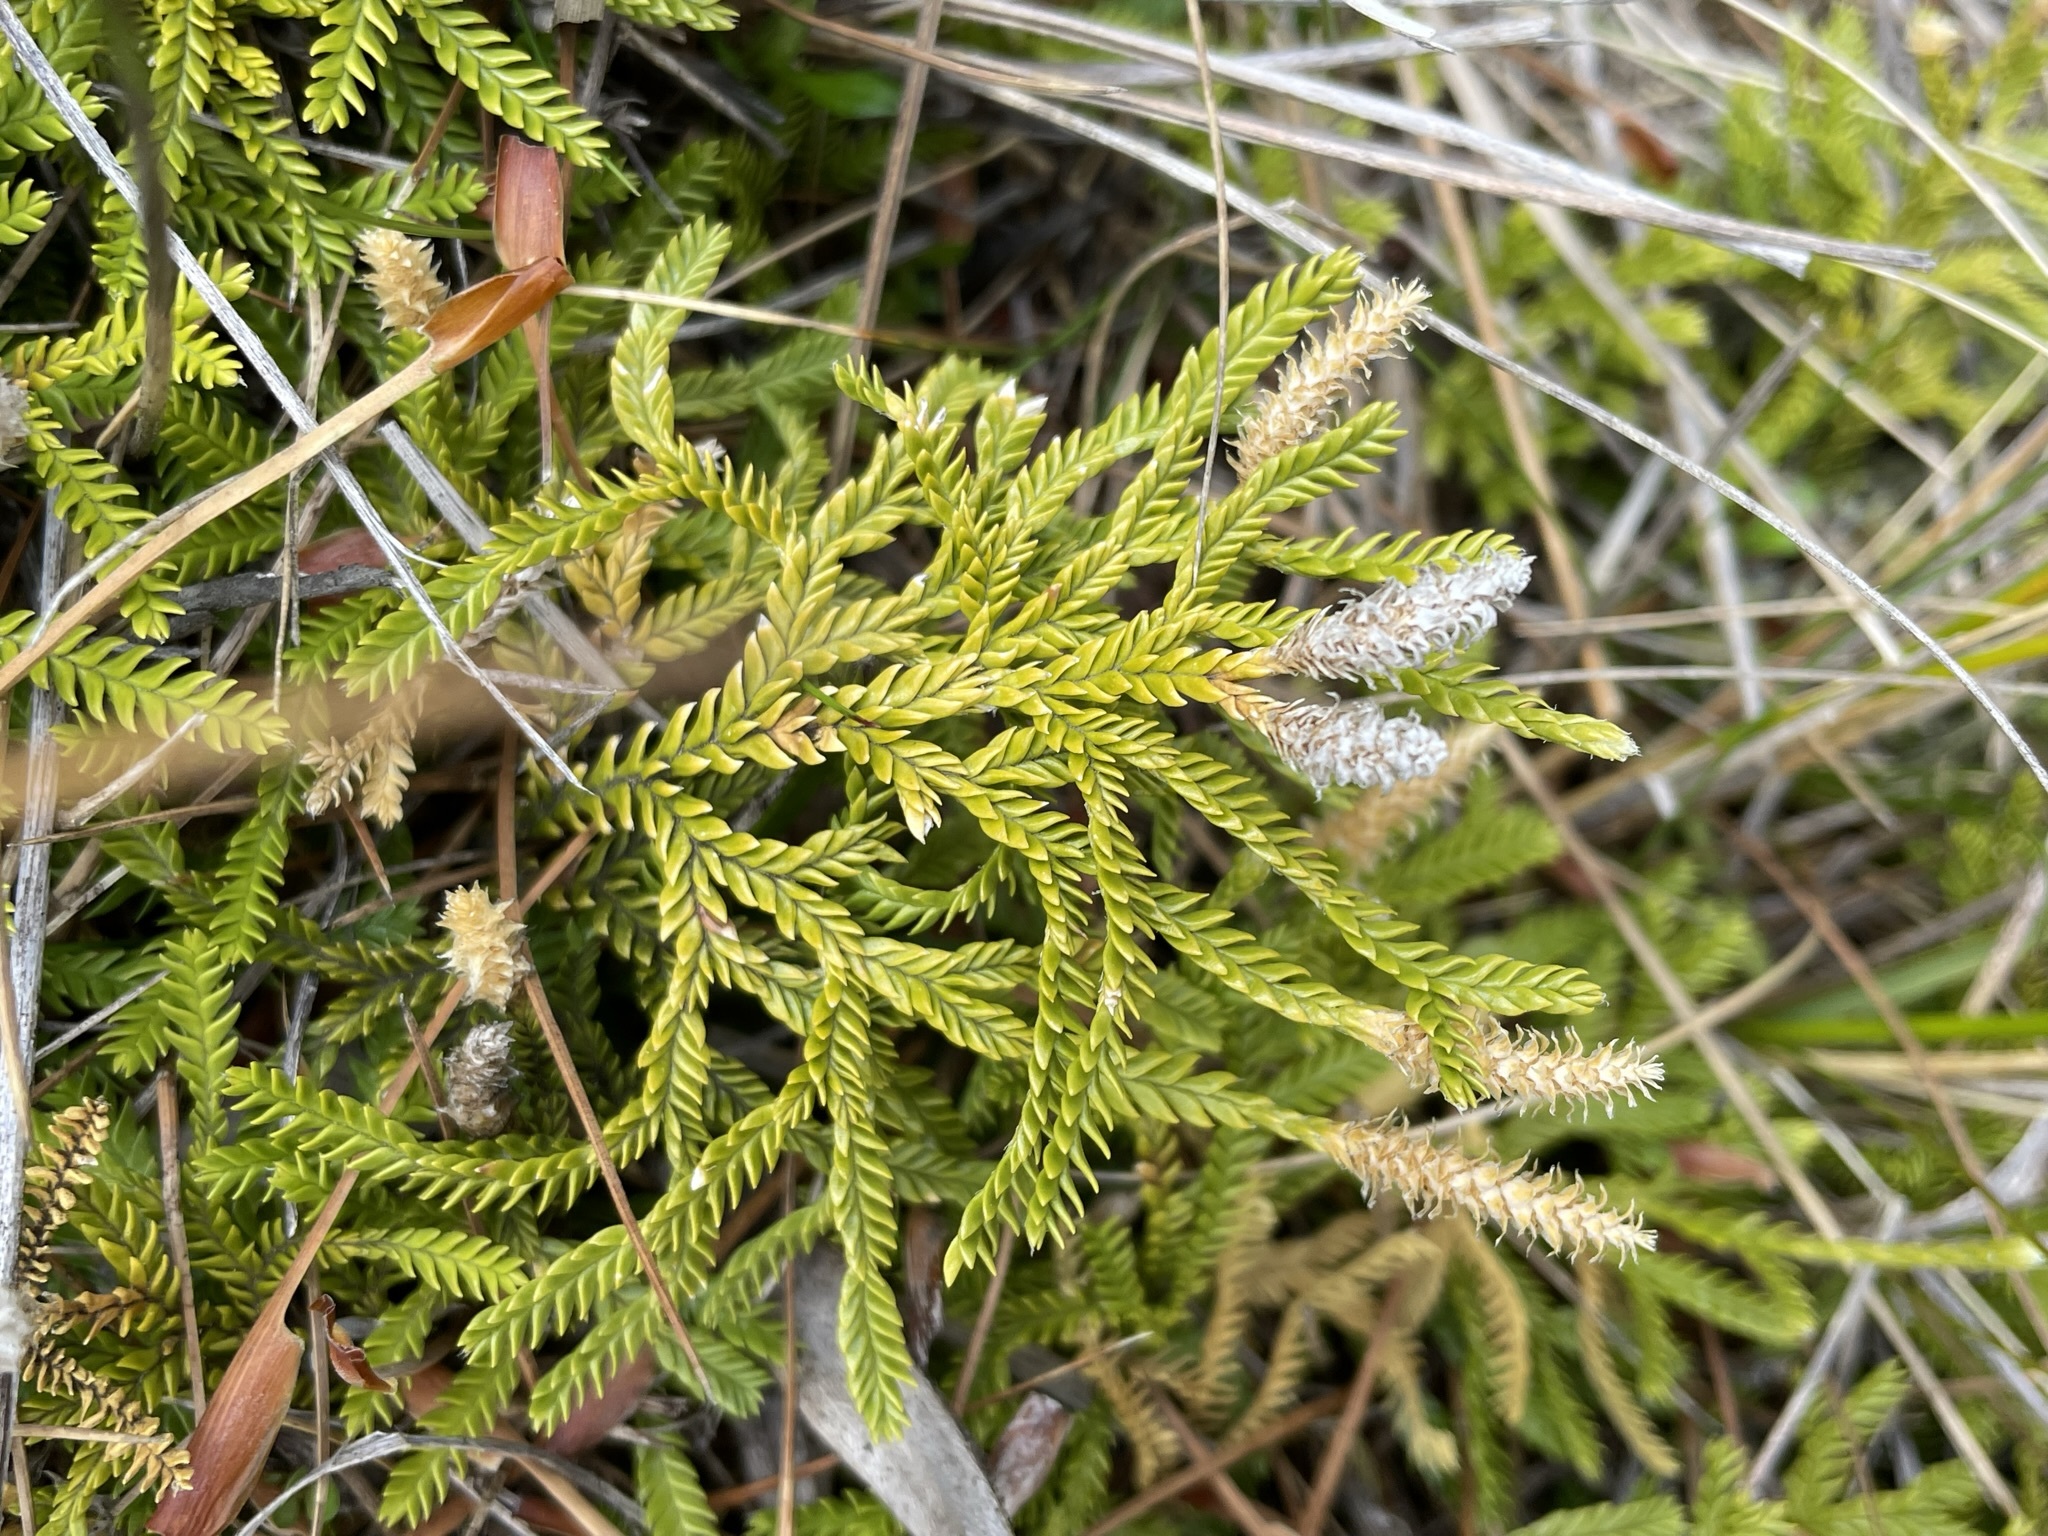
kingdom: Plantae
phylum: Tracheophyta
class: Lycopodiopsida
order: Lycopodiales
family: Lycopodiaceae
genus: Diphasium
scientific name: Diphasium scariosum
